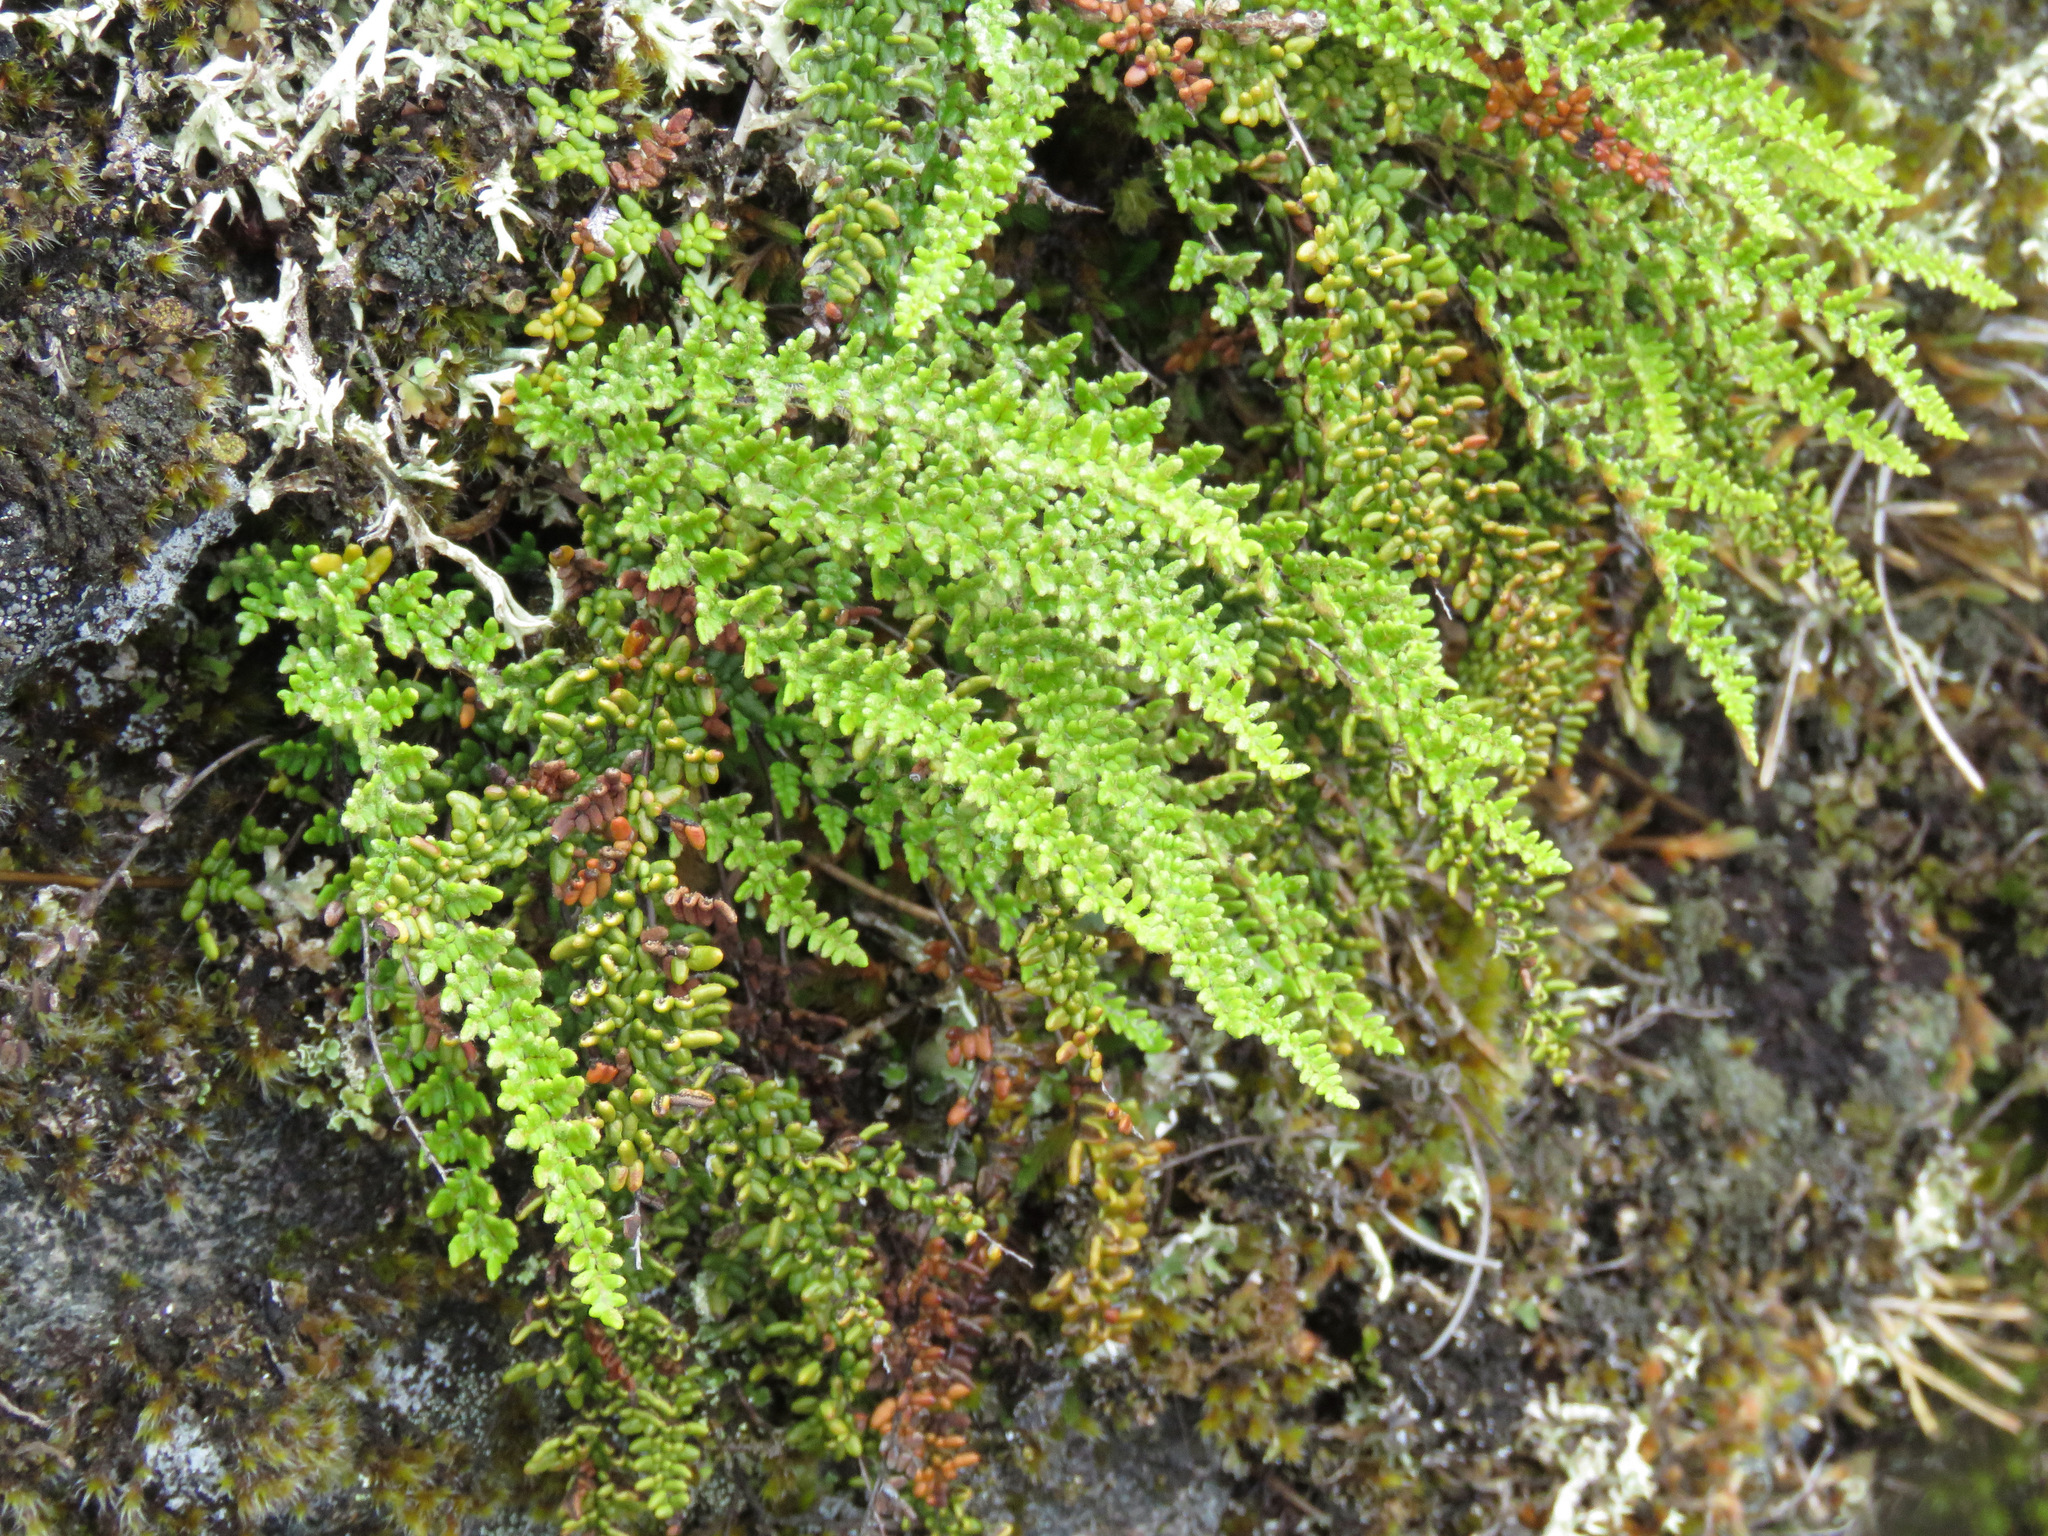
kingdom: Plantae
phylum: Tracheophyta
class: Polypodiopsida
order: Polypodiales
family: Pteridaceae
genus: Myriopteris
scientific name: Myriopteris gracillima
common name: Lace fern
